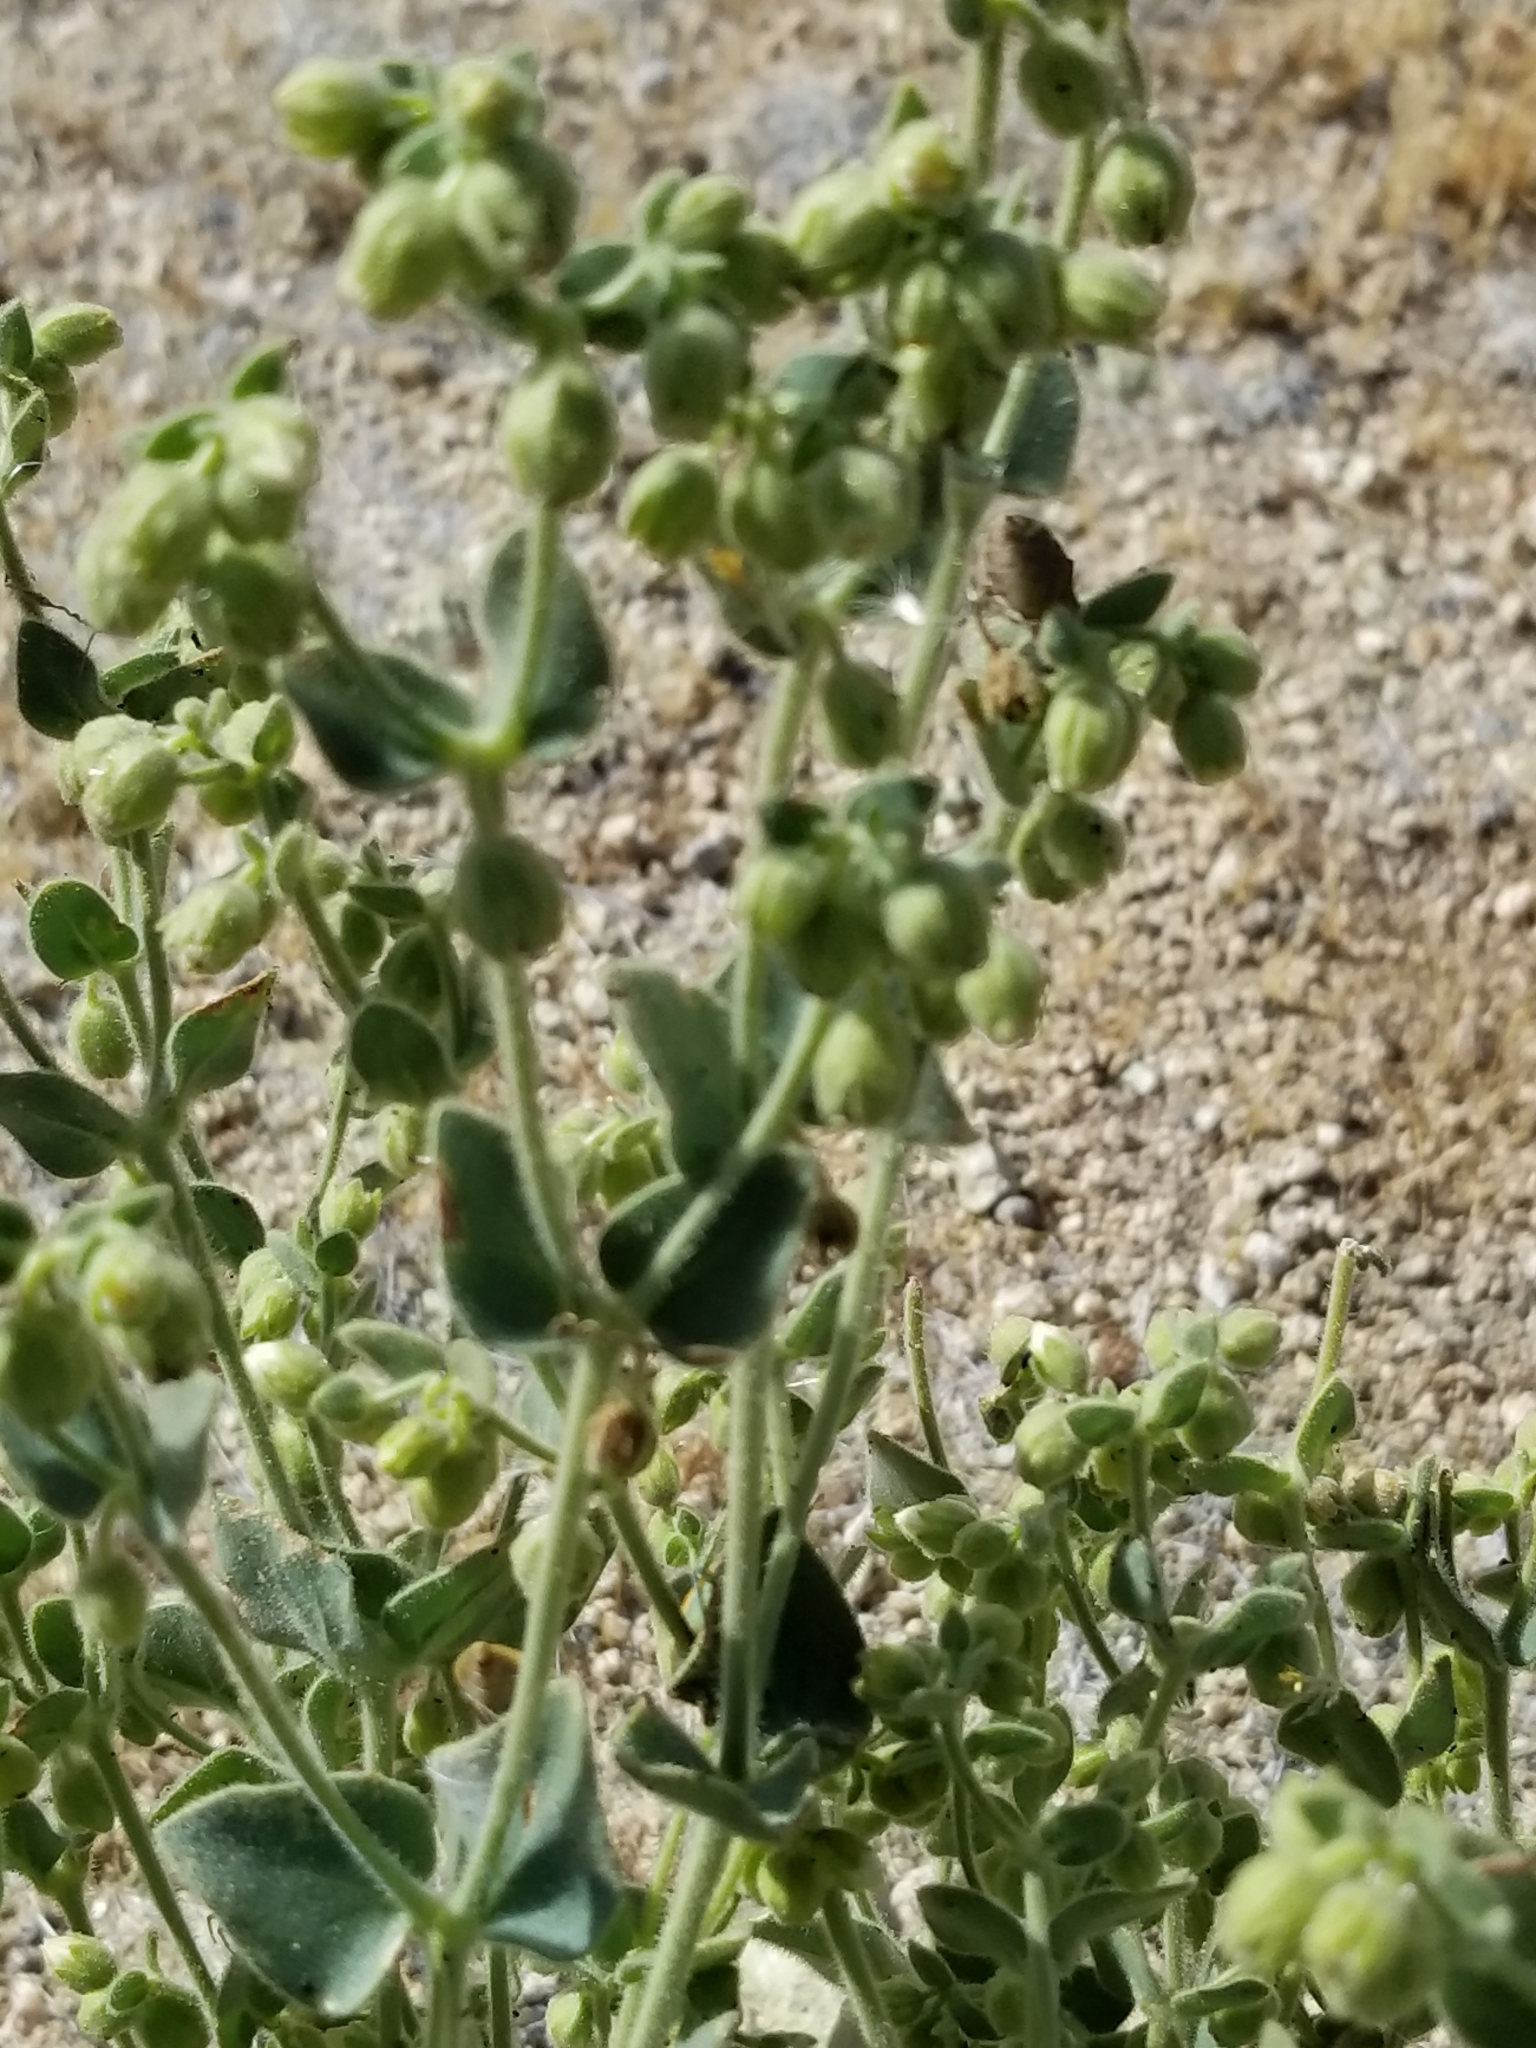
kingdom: Plantae
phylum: Tracheophyta
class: Magnoliopsida
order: Caryophyllales
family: Nyctaginaceae
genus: Mirabilis
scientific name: Mirabilis laevis
